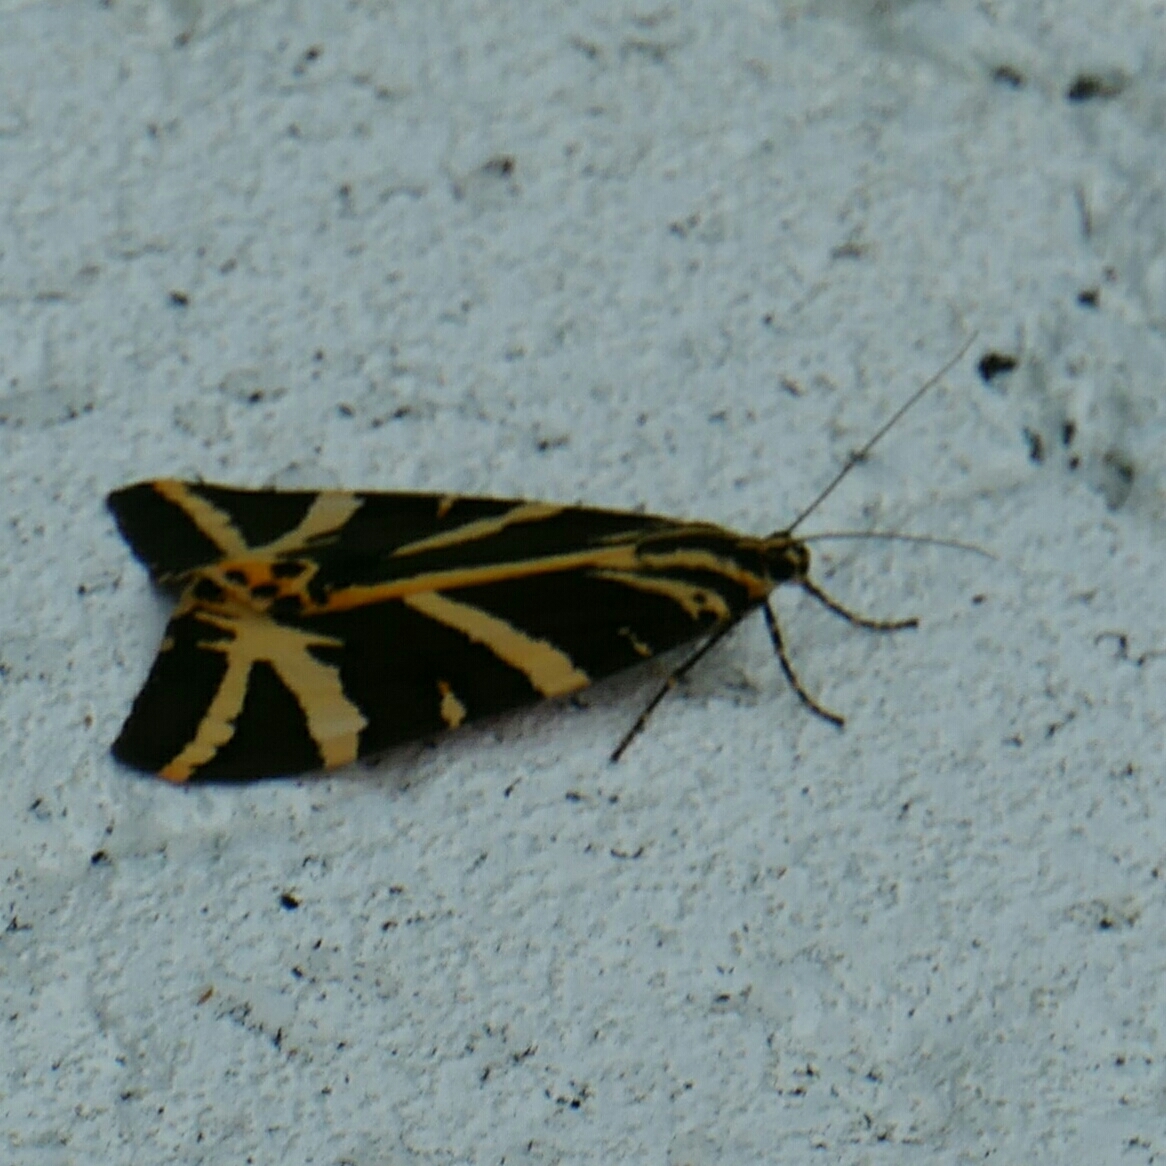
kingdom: Animalia
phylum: Arthropoda
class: Insecta
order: Lepidoptera
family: Erebidae
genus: Euplagia
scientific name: Euplagia quadripunctaria
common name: Jersey tiger
